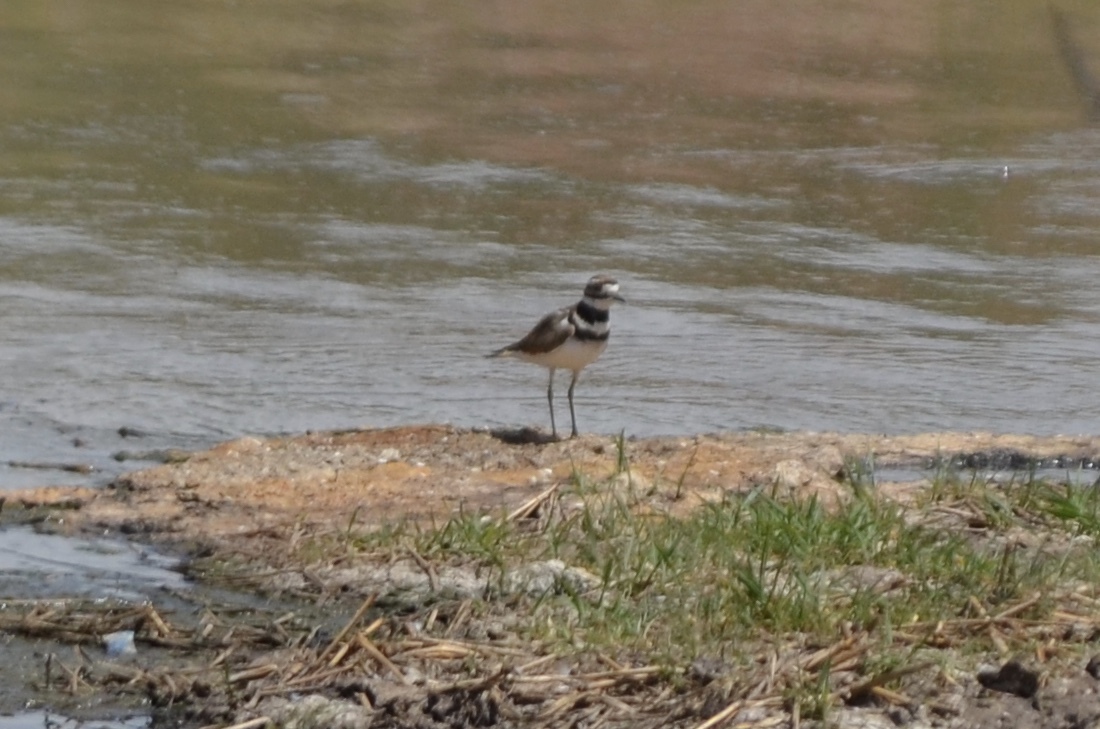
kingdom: Animalia
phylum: Chordata
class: Aves
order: Charadriiformes
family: Charadriidae
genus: Charadrius
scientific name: Charadrius vociferus
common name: Killdeer
